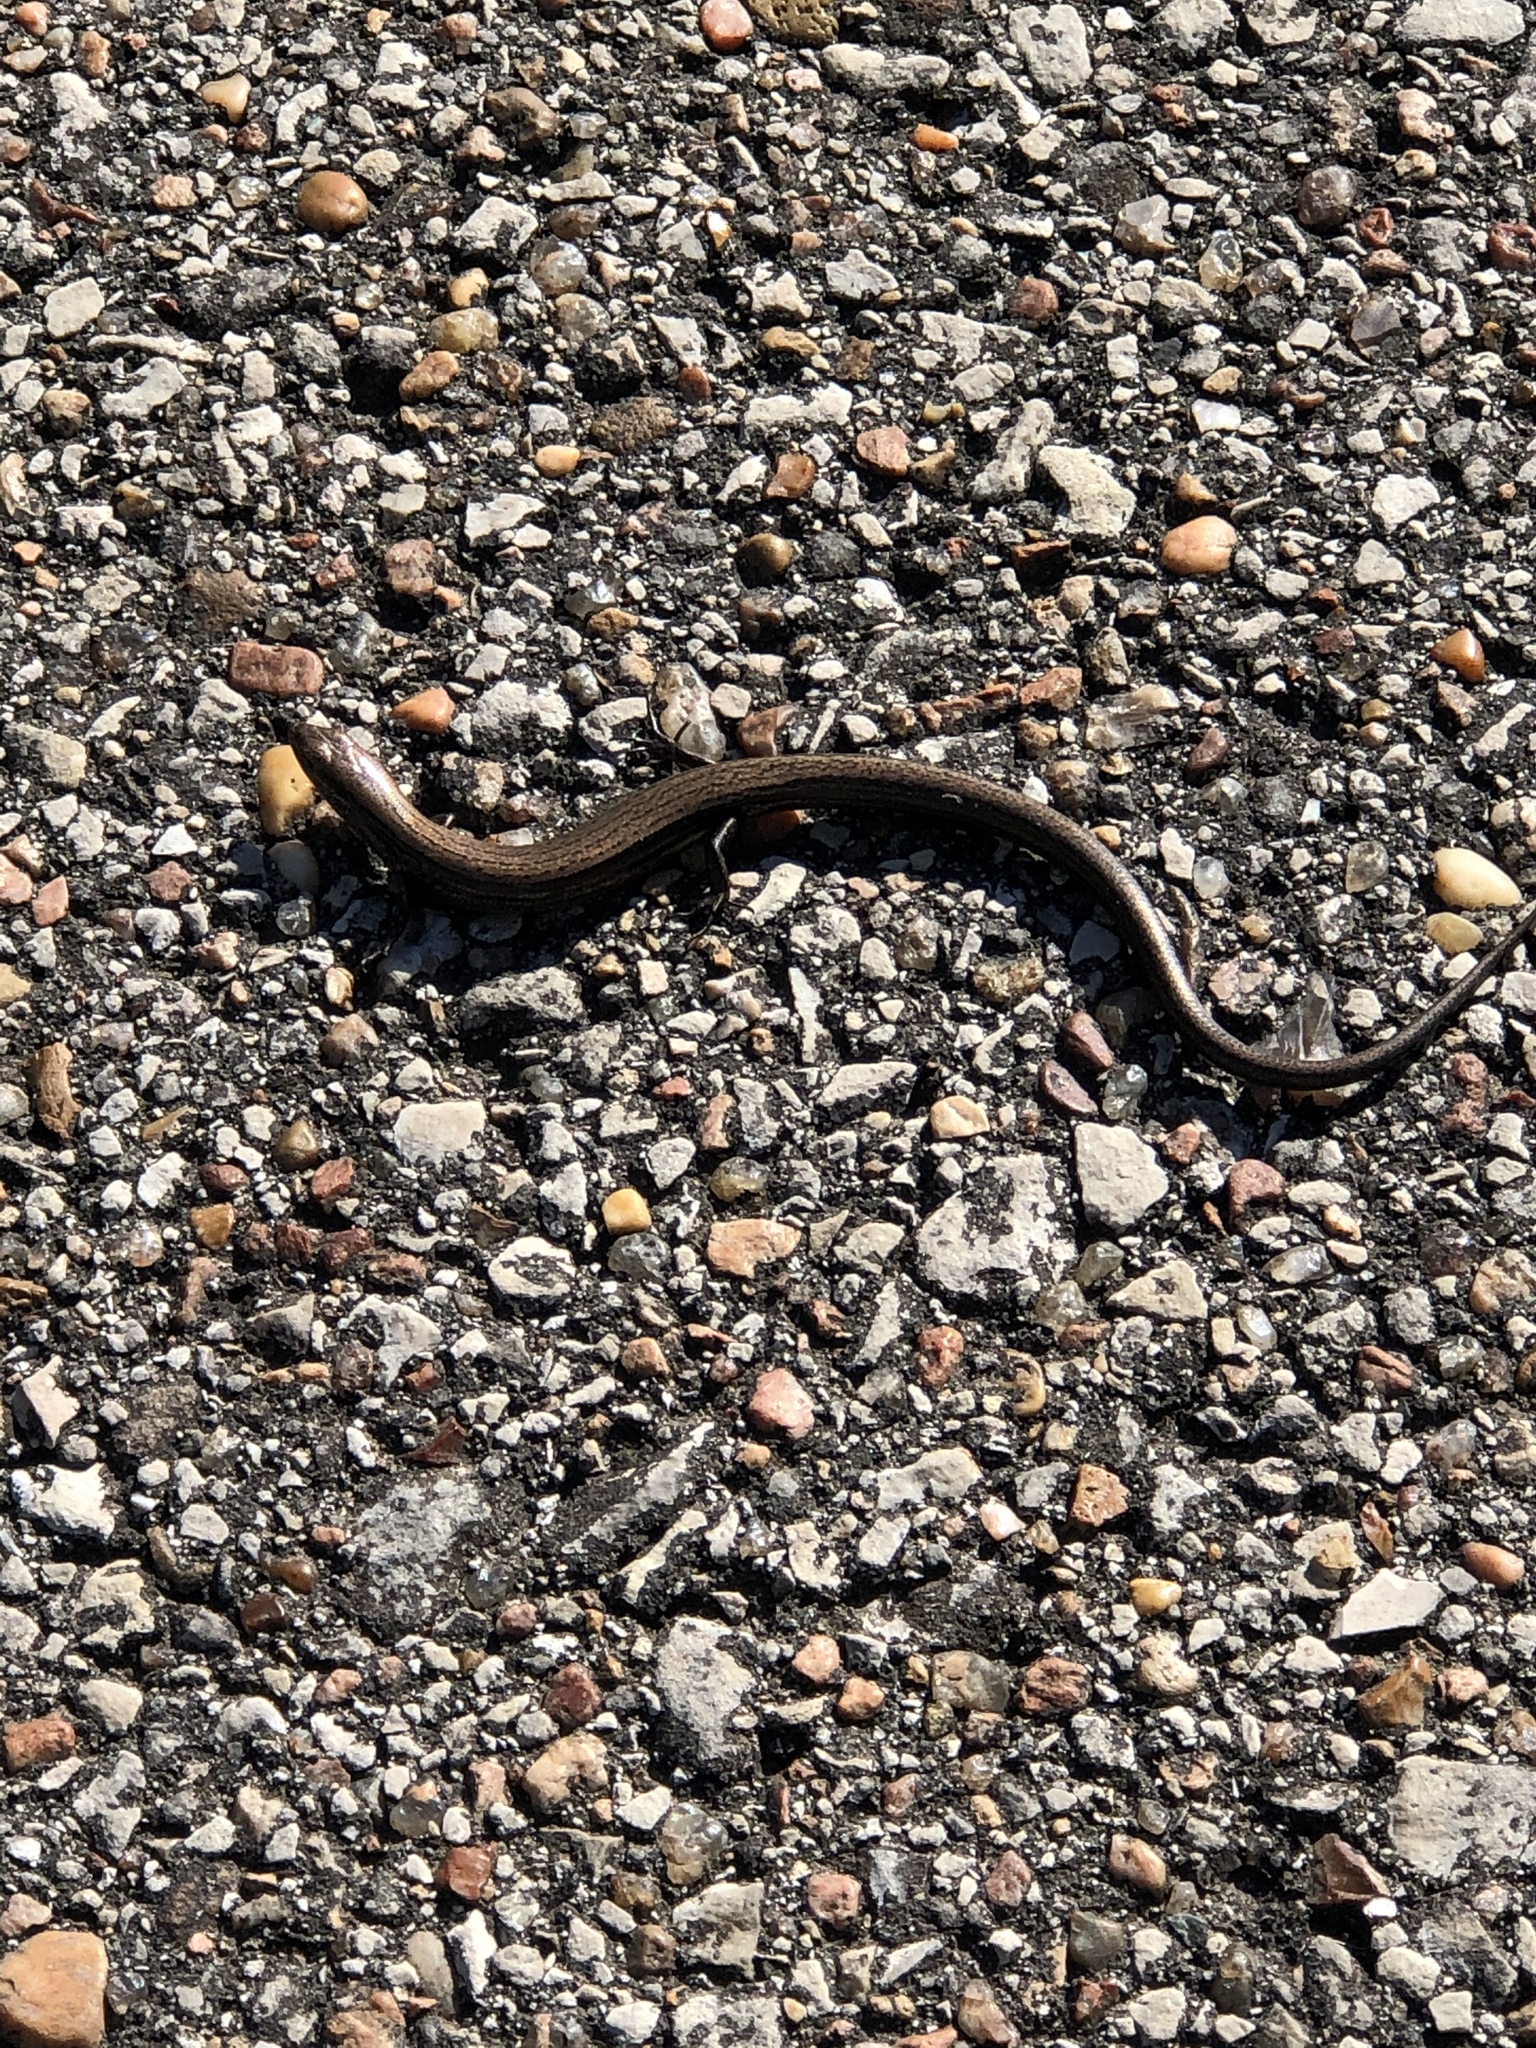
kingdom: Animalia
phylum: Chordata
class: Squamata
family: Scincidae
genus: Scincella
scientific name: Scincella lateralis
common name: Ground skink
